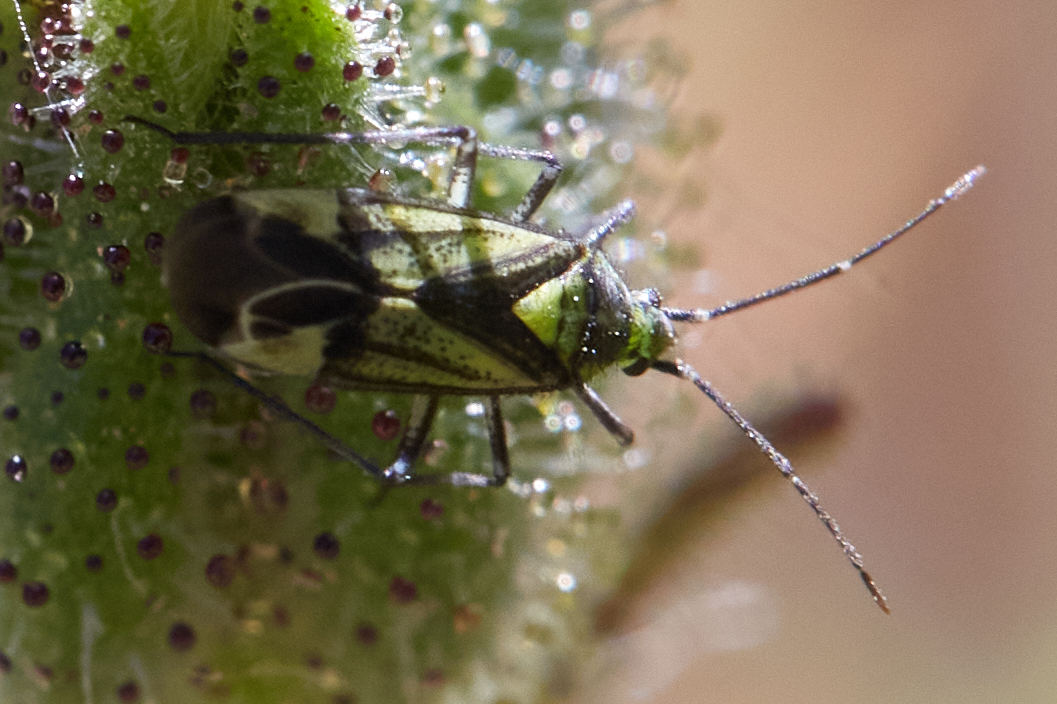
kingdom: Animalia
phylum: Arthropoda
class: Insecta
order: Hemiptera
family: Miridae
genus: Macrotylus
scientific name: Macrotylus intermedius
